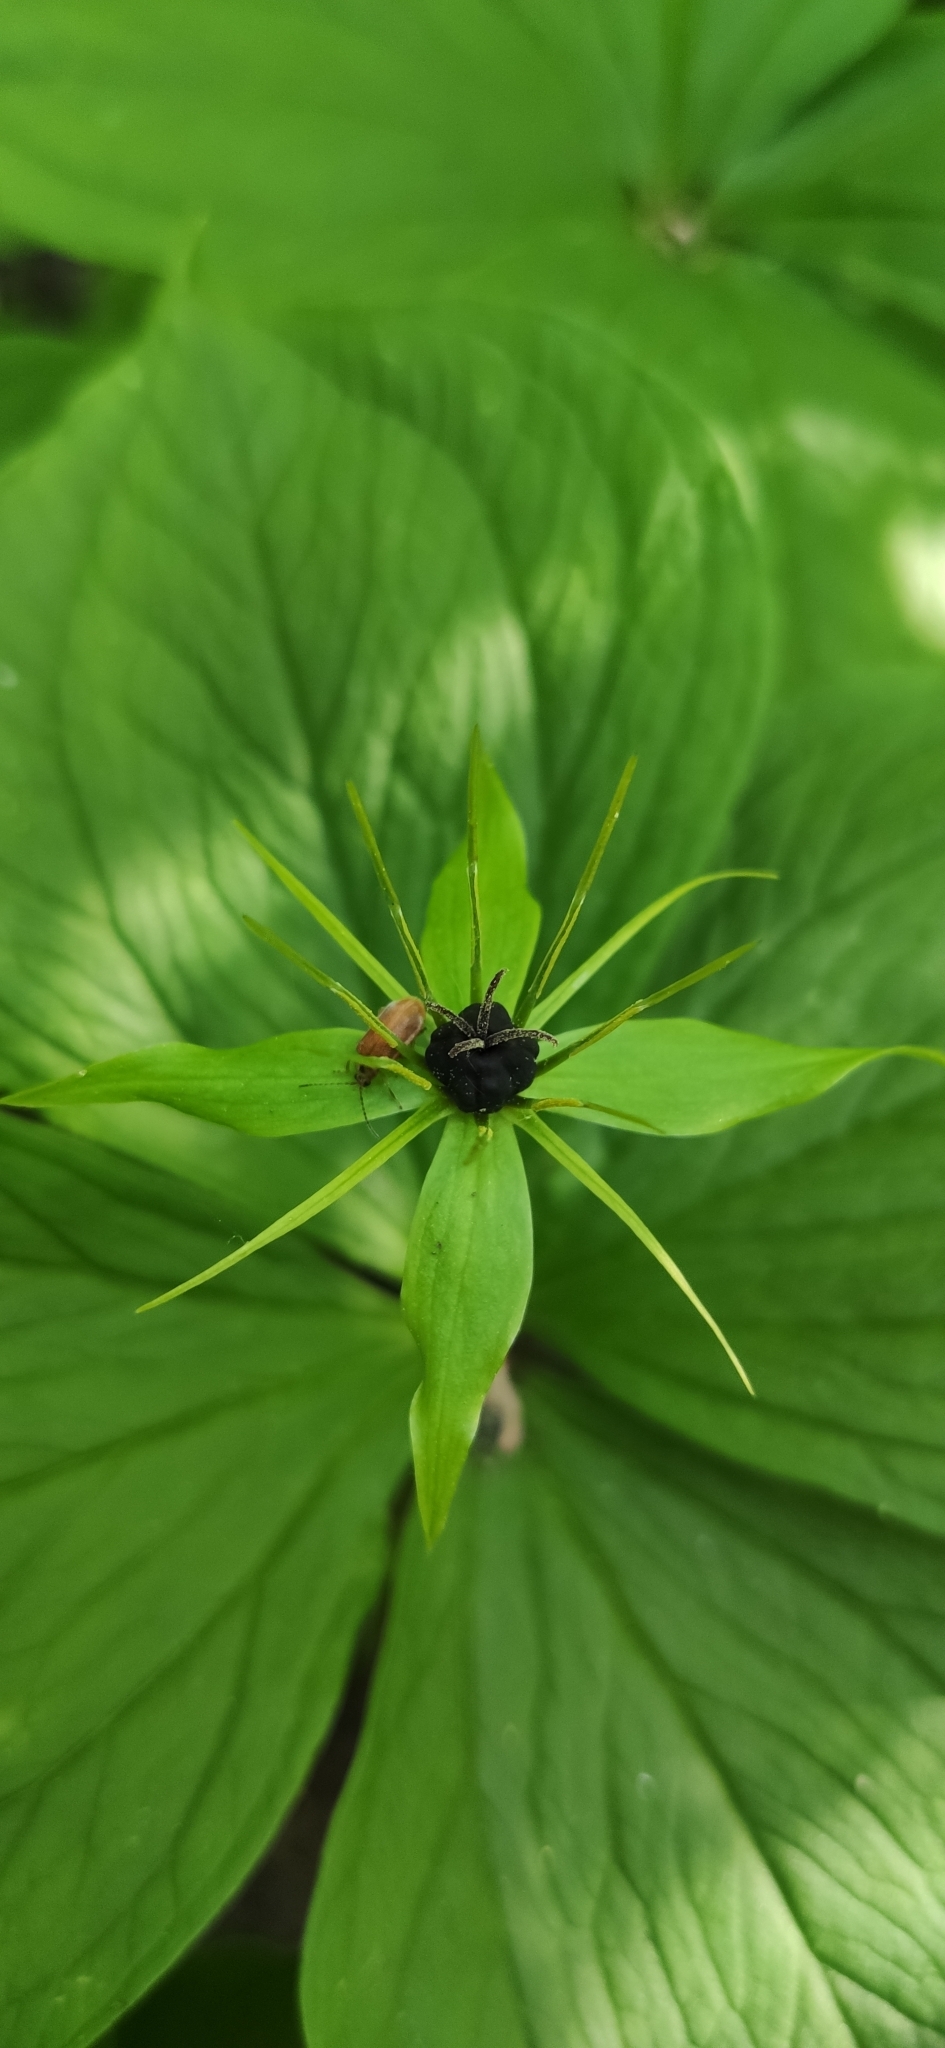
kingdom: Plantae
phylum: Tracheophyta
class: Liliopsida
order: Liliales
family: Melanthiaceae
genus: Paris
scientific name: Paris quadrifolia
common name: Herb-paris
